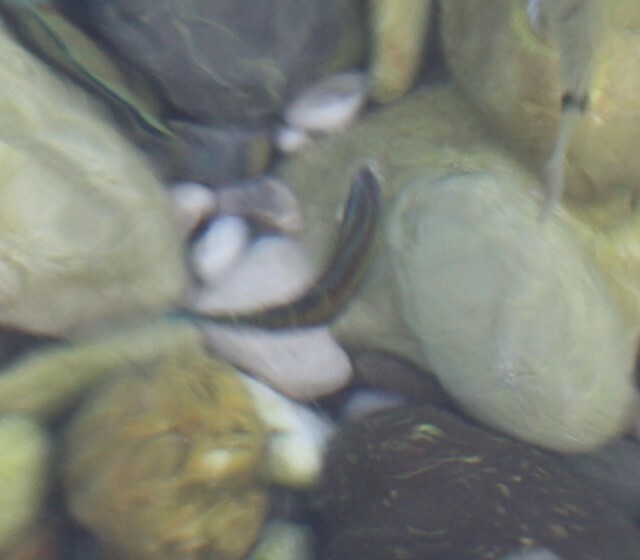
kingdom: Animalia
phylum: Chordata
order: Perciformes
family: Labridae
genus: Thalassoma
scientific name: Thalassoma pavo
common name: Ornate wrasse
